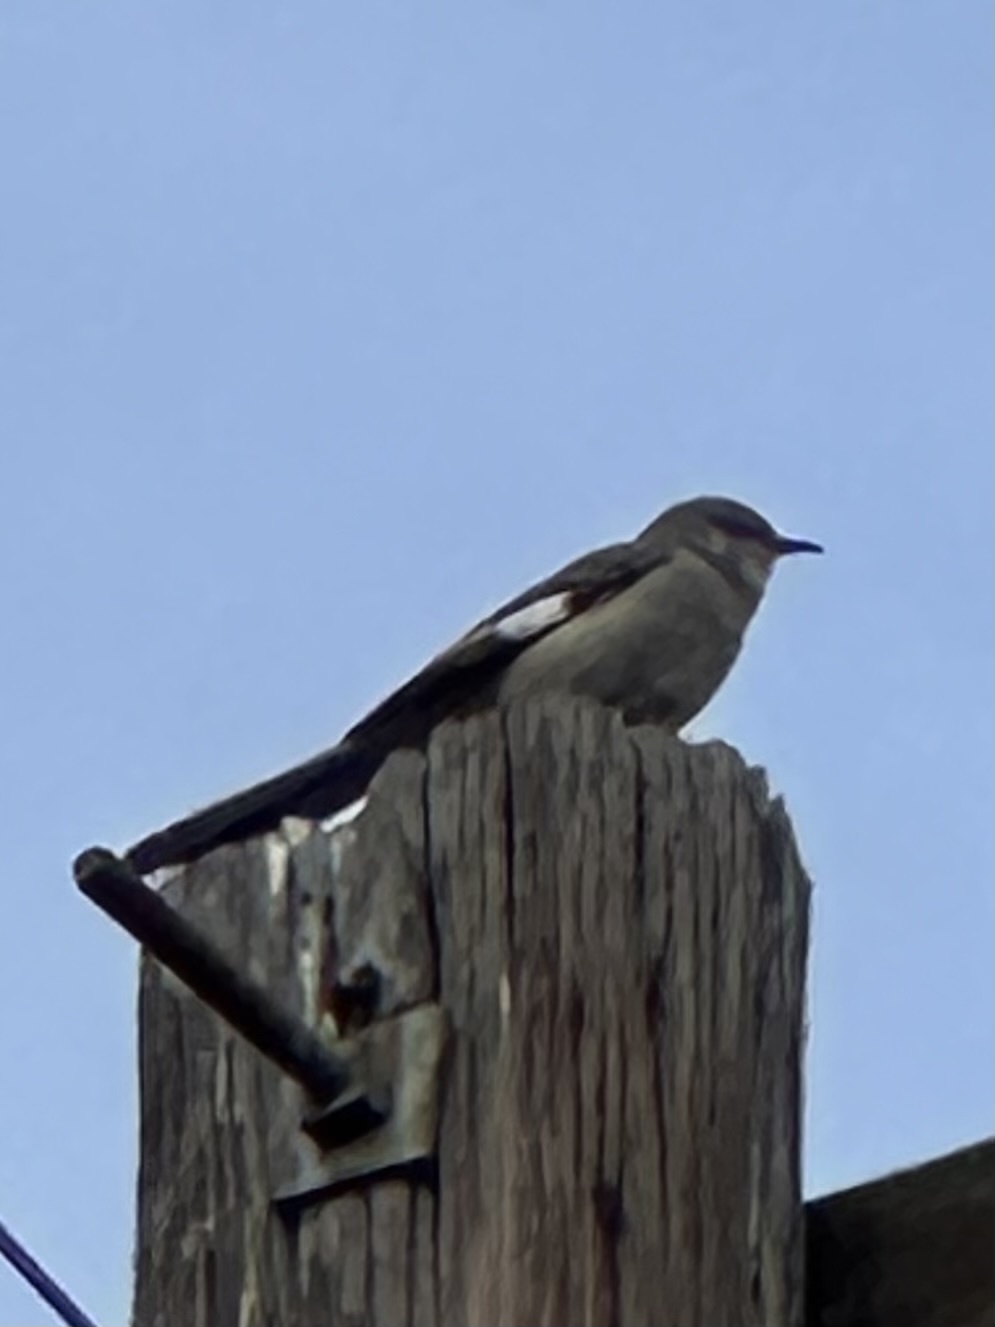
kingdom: Animalia
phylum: Chordata
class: Aves
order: Passeriformes
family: Mimidae
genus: Mimus
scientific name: Mimus polyglottos
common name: Northern mockingbird
